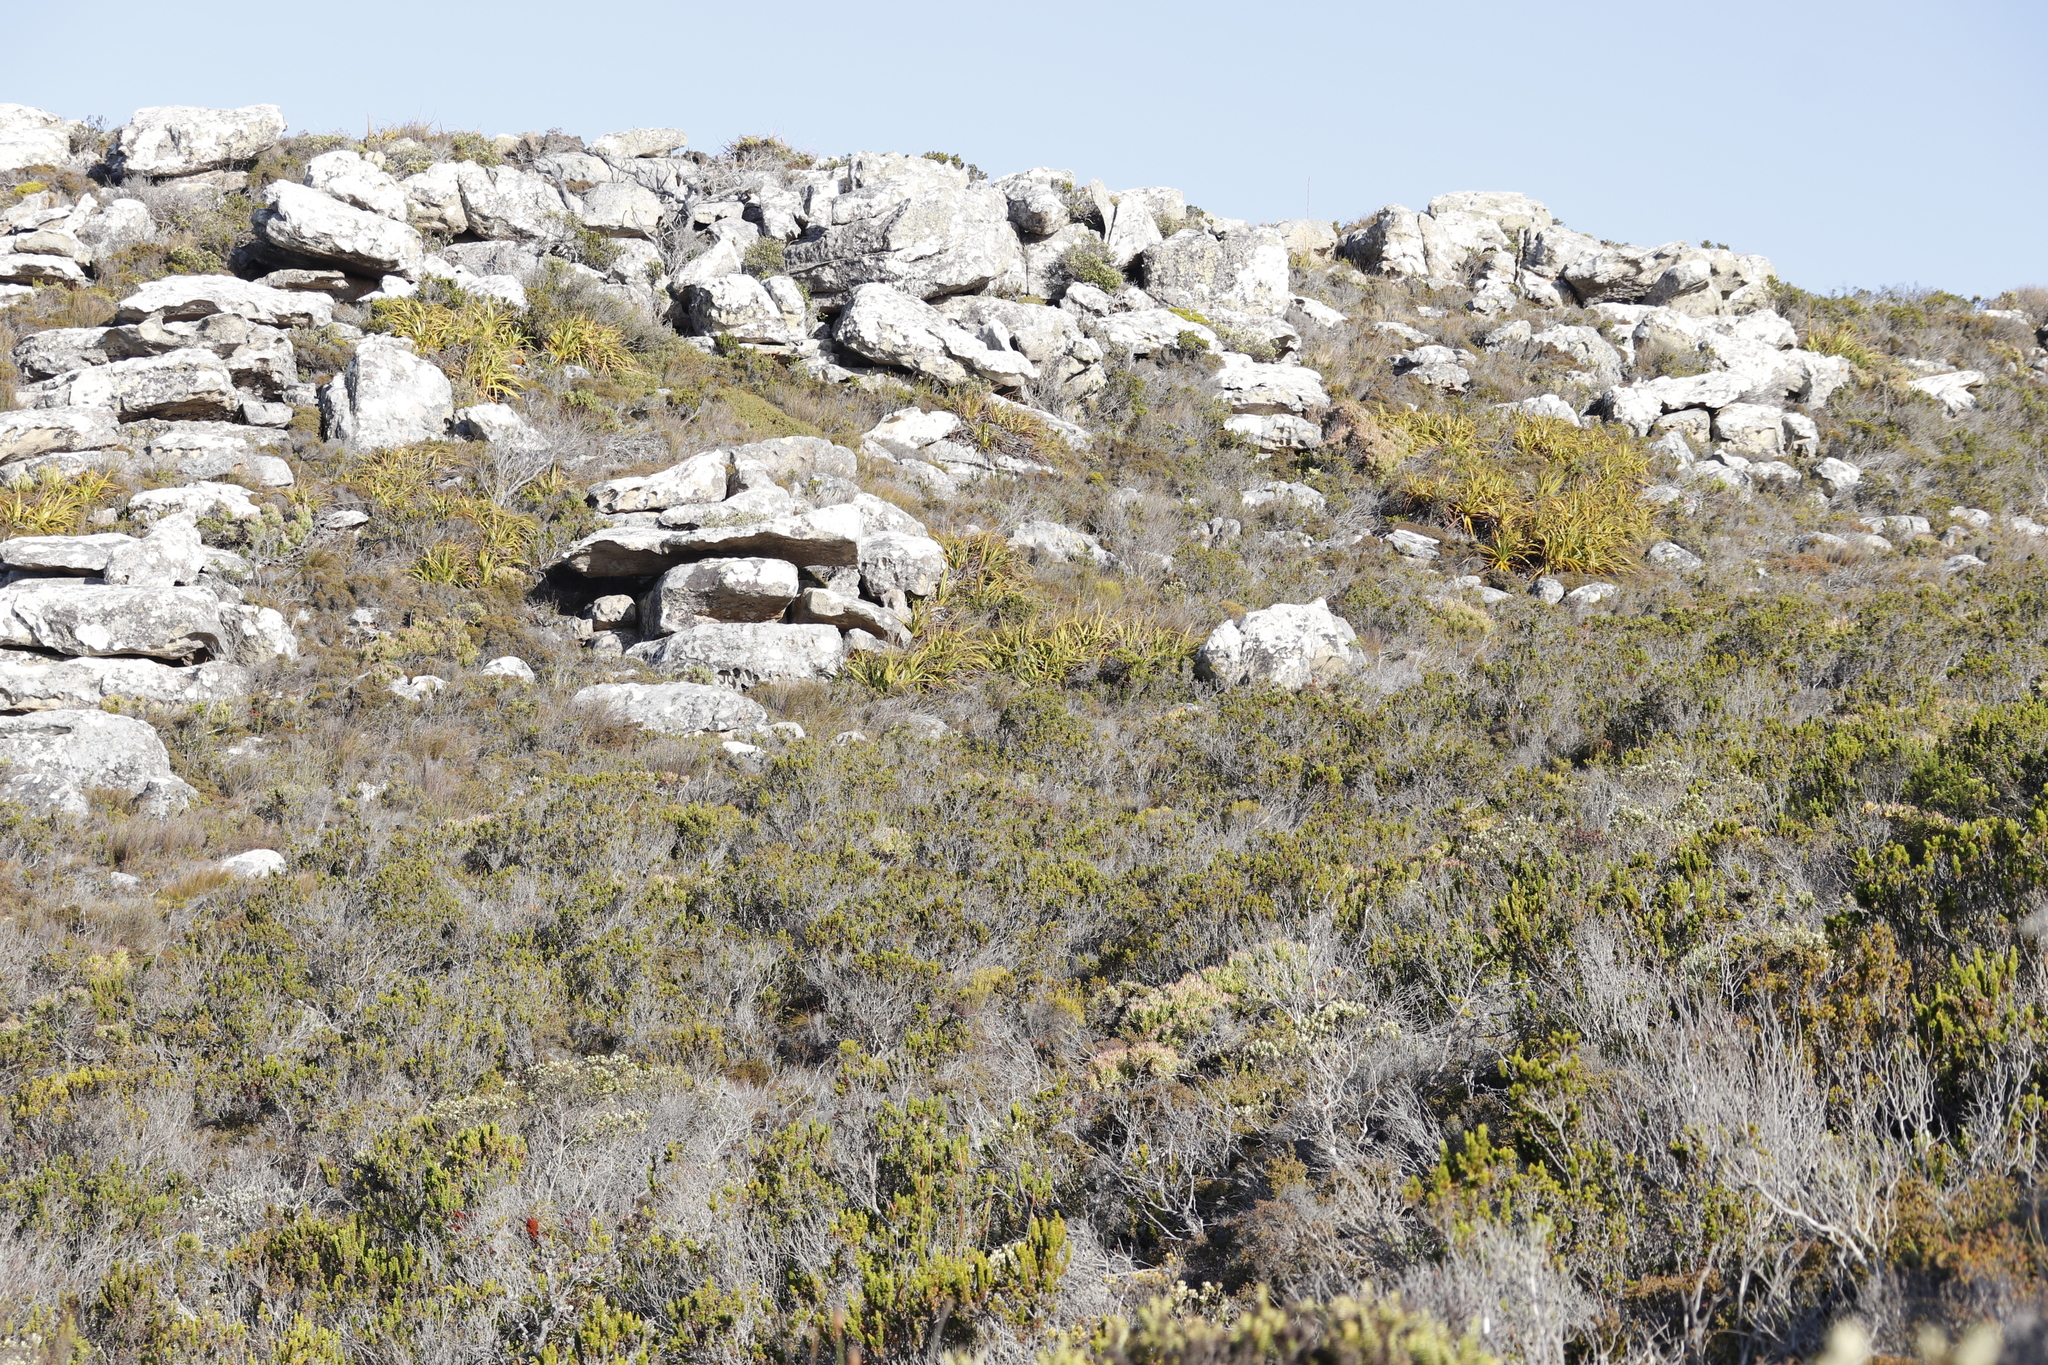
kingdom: Plantae
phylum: Tracheophyta
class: Liliopsida
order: Poales
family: Cyperaceae
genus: Tetraria
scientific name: Tetraria thermalis
